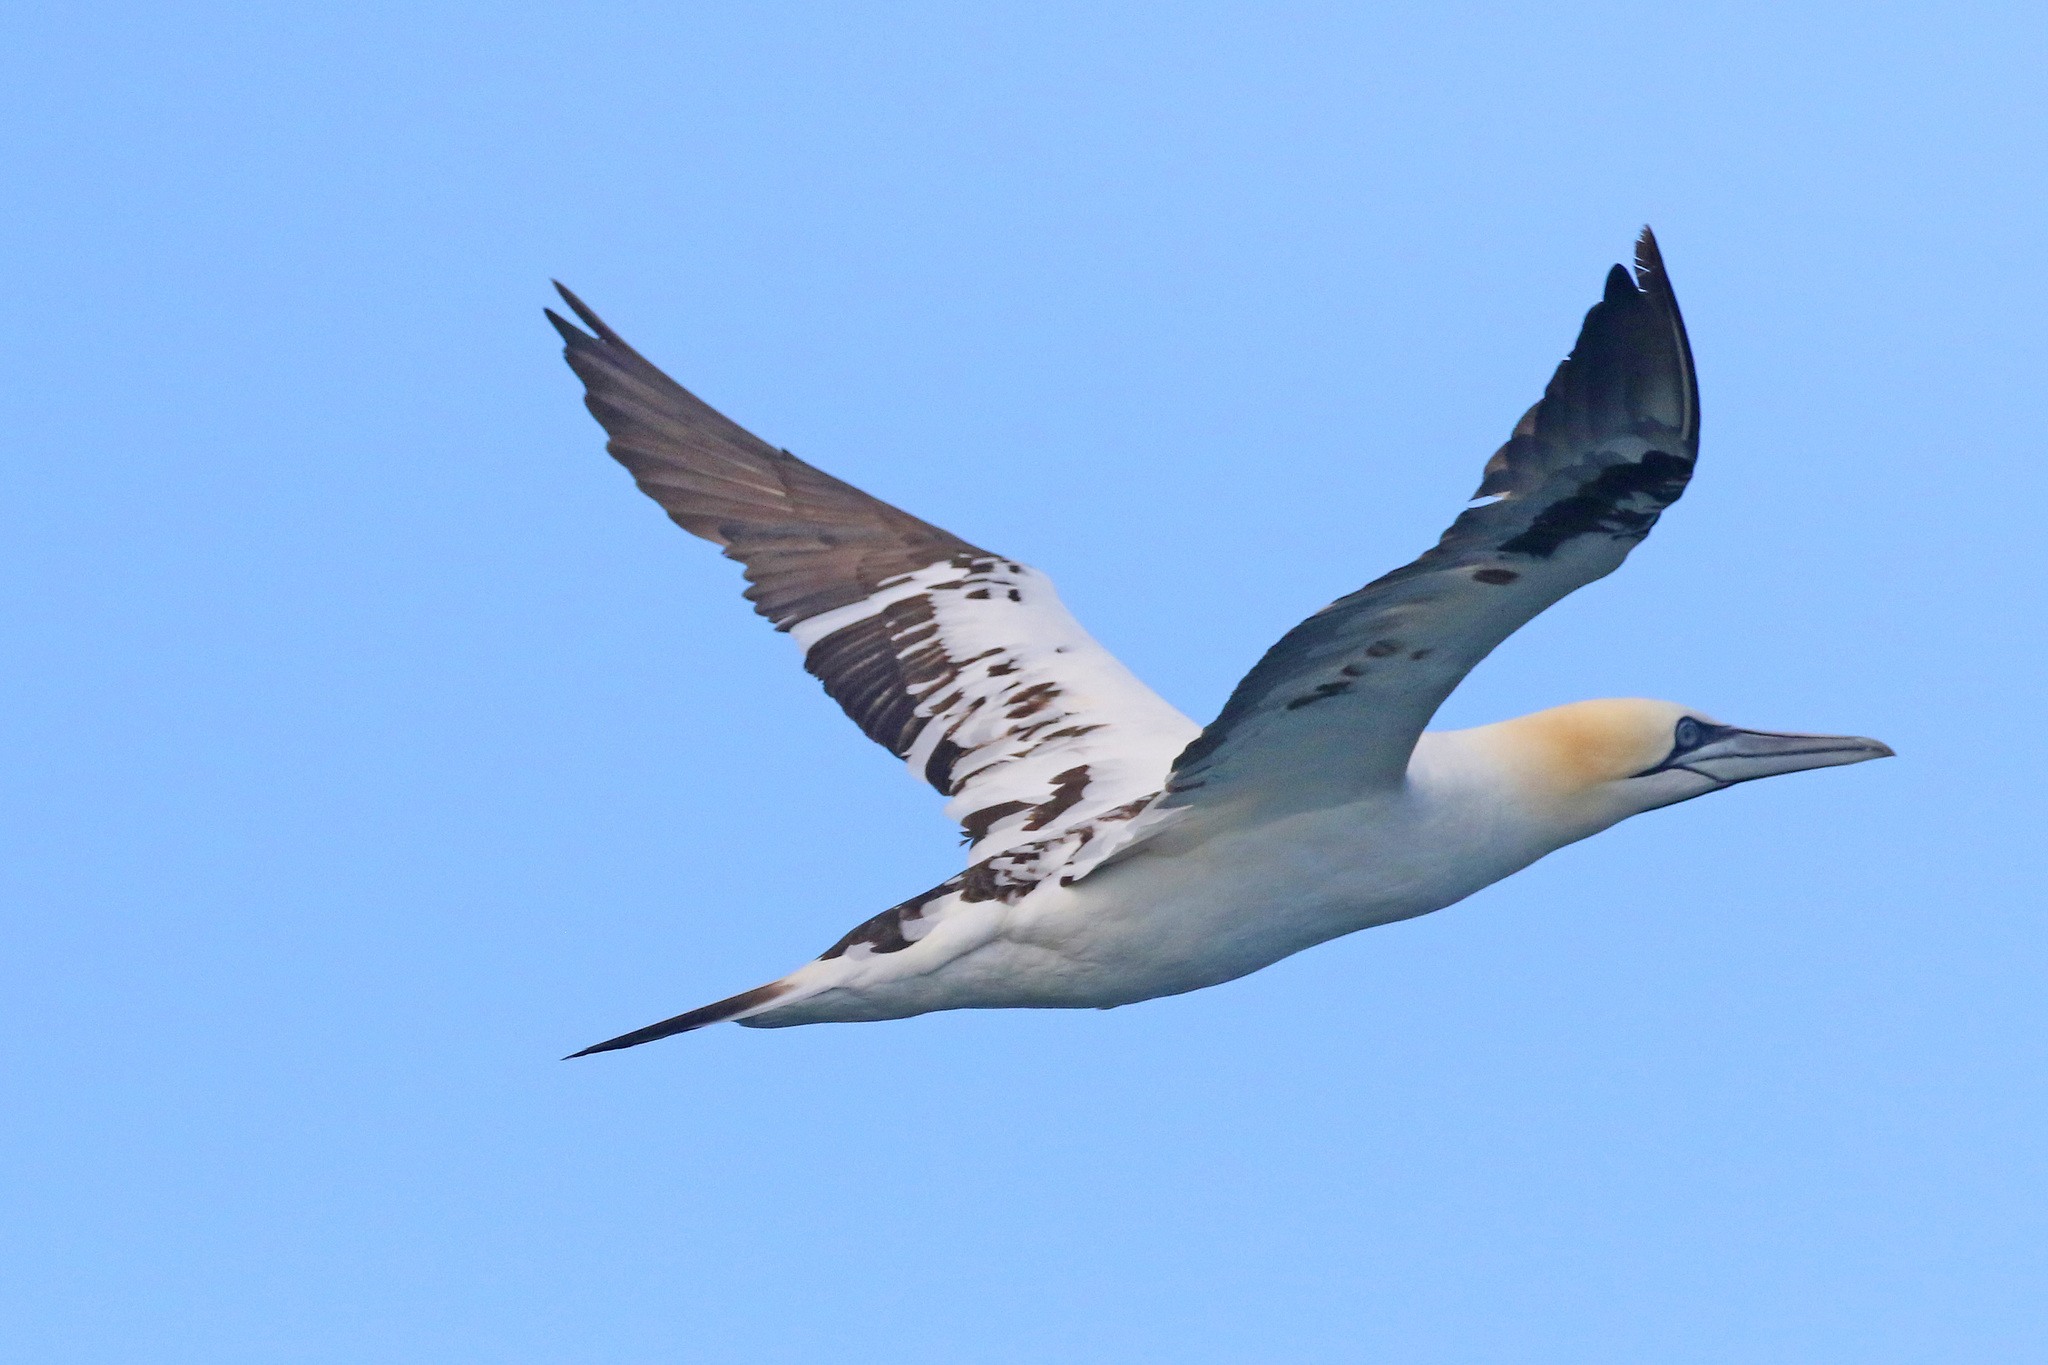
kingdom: Animalia
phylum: Chordata
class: Aves
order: Suliformes
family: Sulidae
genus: Morus
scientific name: Morus bassanus
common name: Northern gannet
